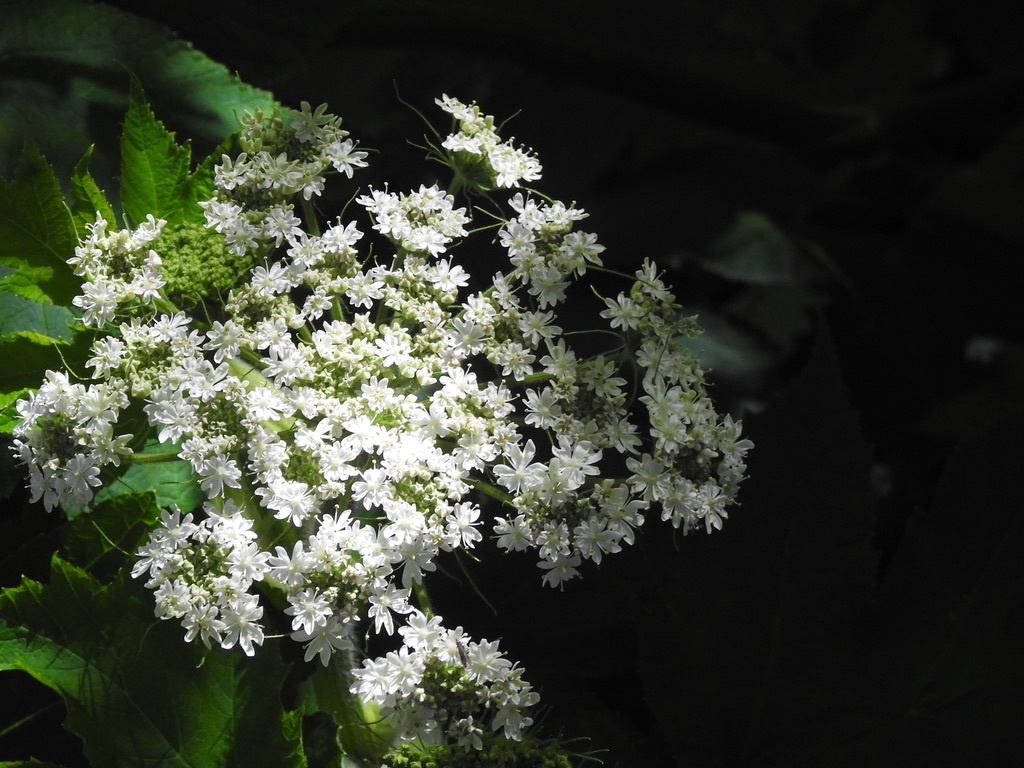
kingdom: Plantae
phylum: Tracheophyta
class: Magnoliopsida
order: Apiales
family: Apiaceae
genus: Heracleum
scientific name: Heracleum maximum
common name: American cow parsnip
